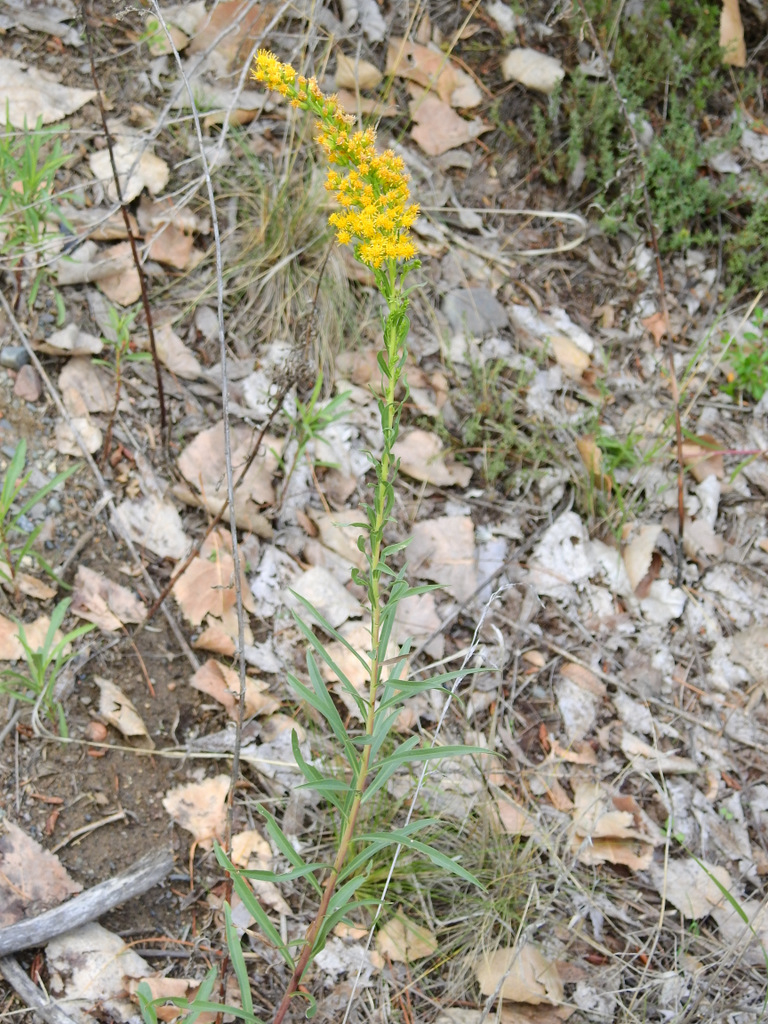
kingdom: Plantae
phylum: Tracheophyta
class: Magnoliopsida
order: Asterales
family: Asteraceae
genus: Solidago
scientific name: Solidago chilensis
